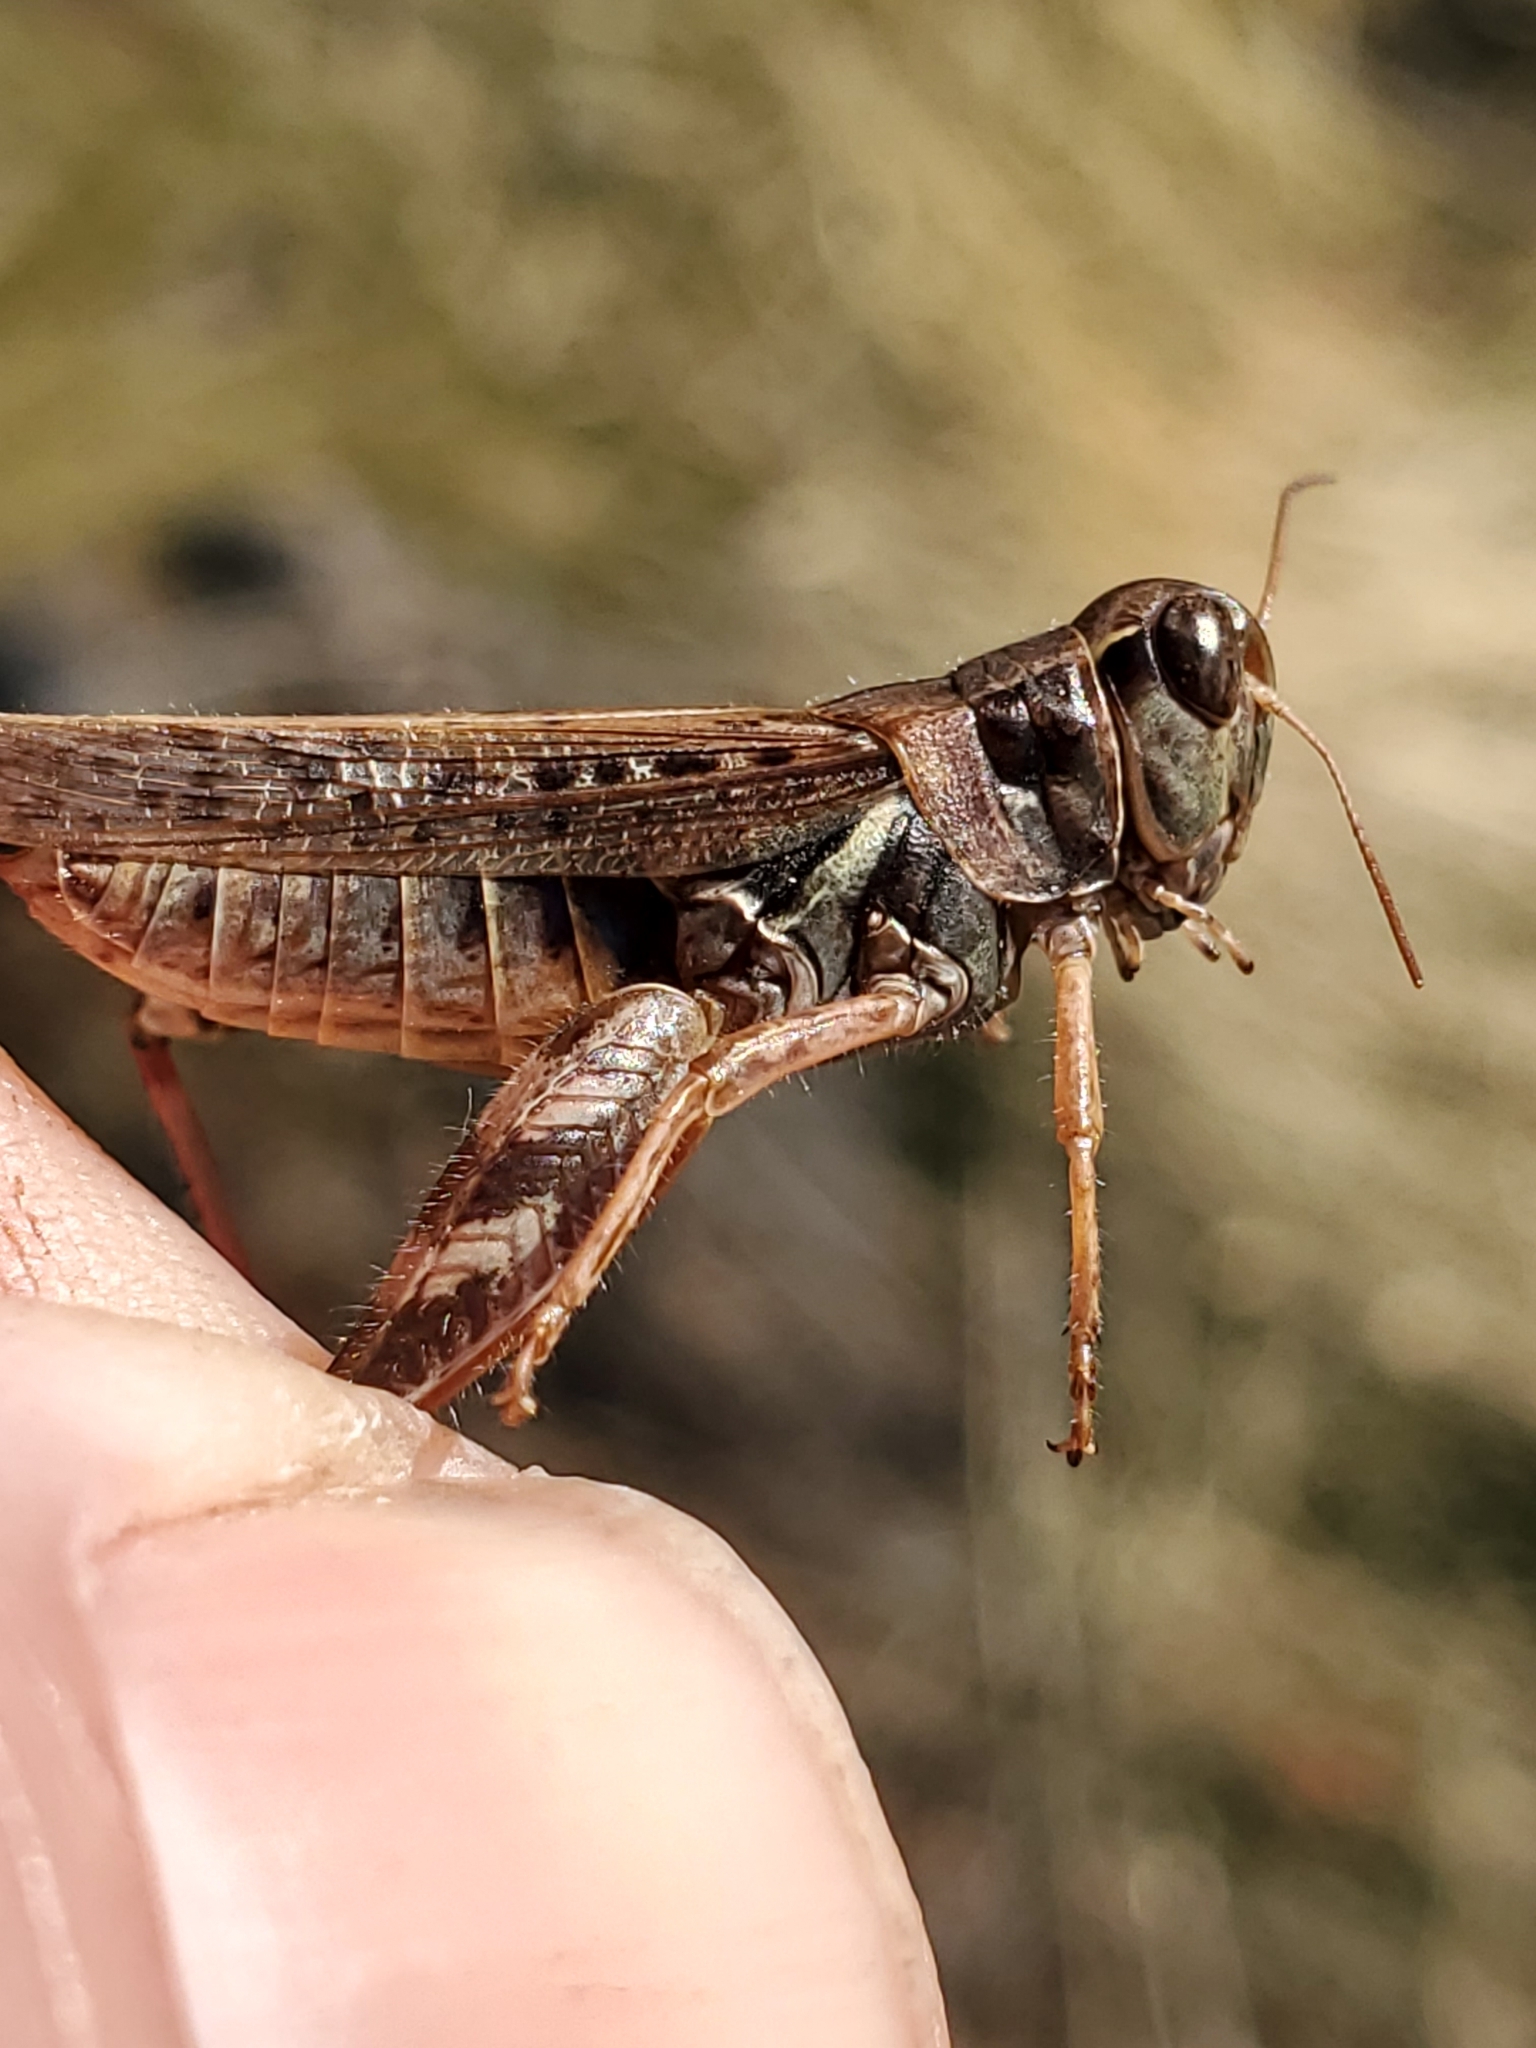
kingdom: Animalia
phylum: Arthropoda
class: Insecta
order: Orthoptera
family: Acrididae
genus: Melanoplus
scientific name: Melanoplus sanguinipes
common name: Migratory grasshopper
